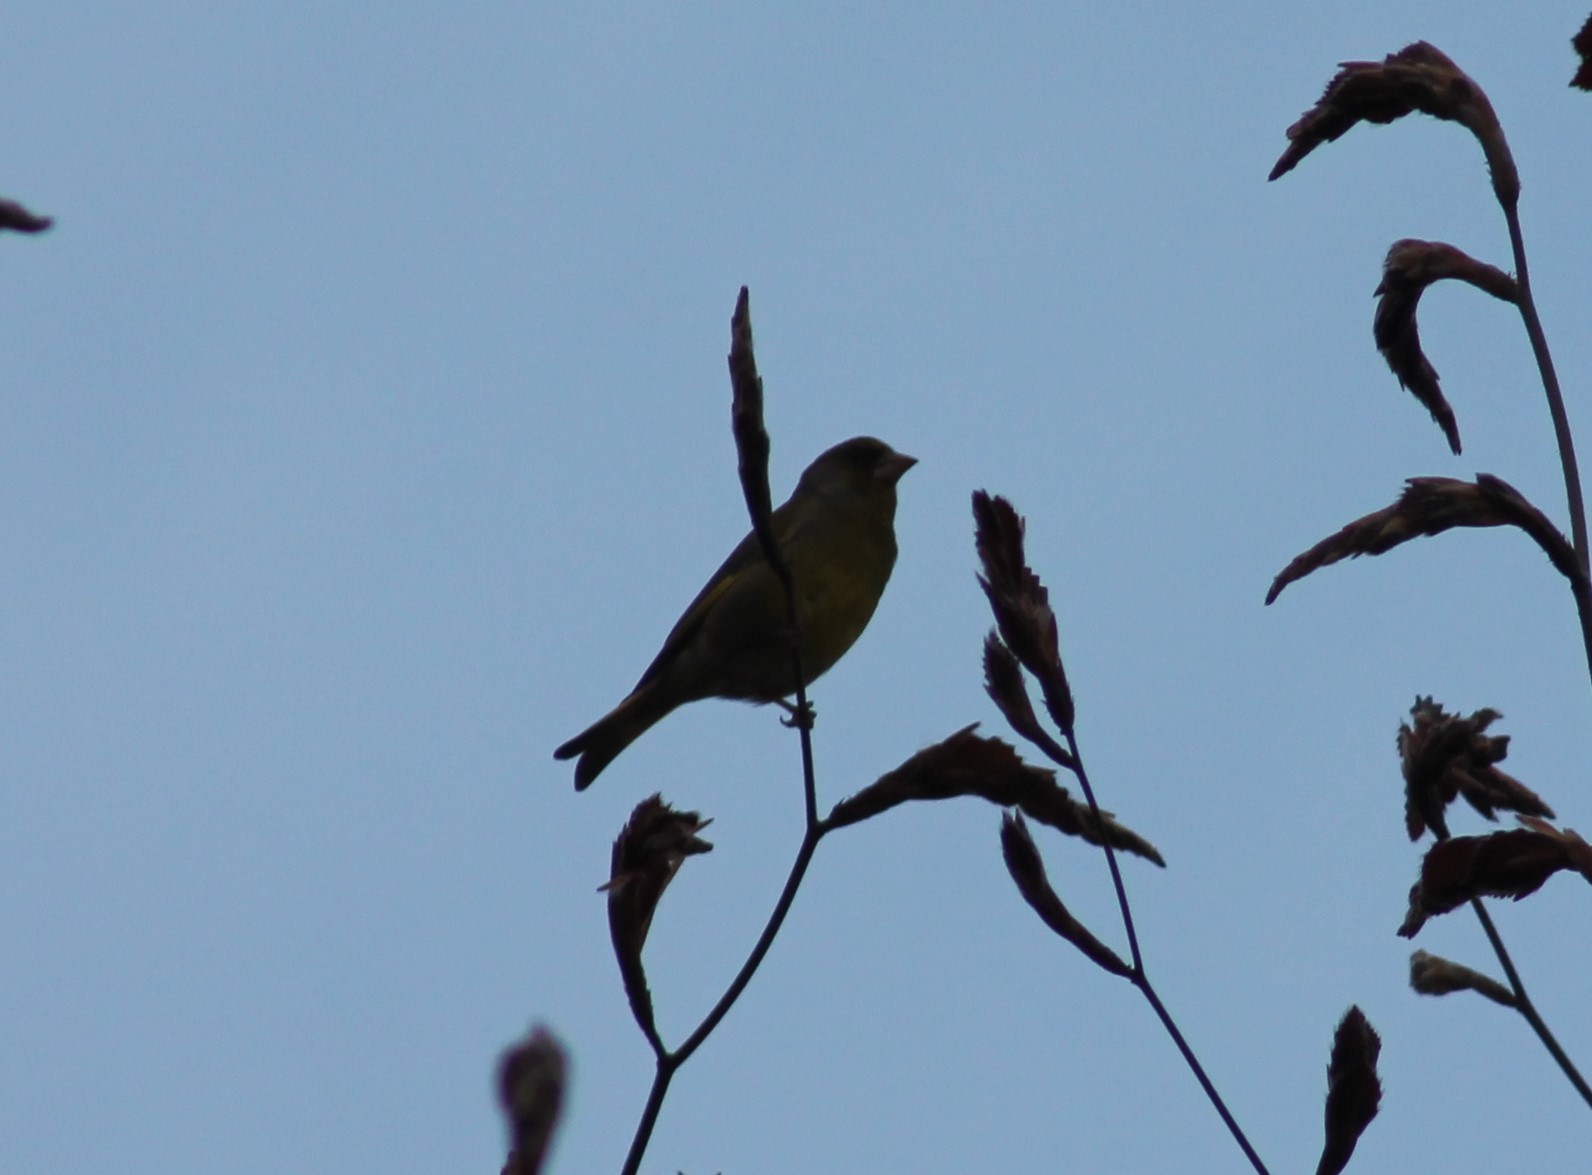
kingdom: Plantae
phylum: Tracheophyta
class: Liliopsida
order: Poales
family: Poaceae
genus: Chloris
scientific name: Chloris chloris
